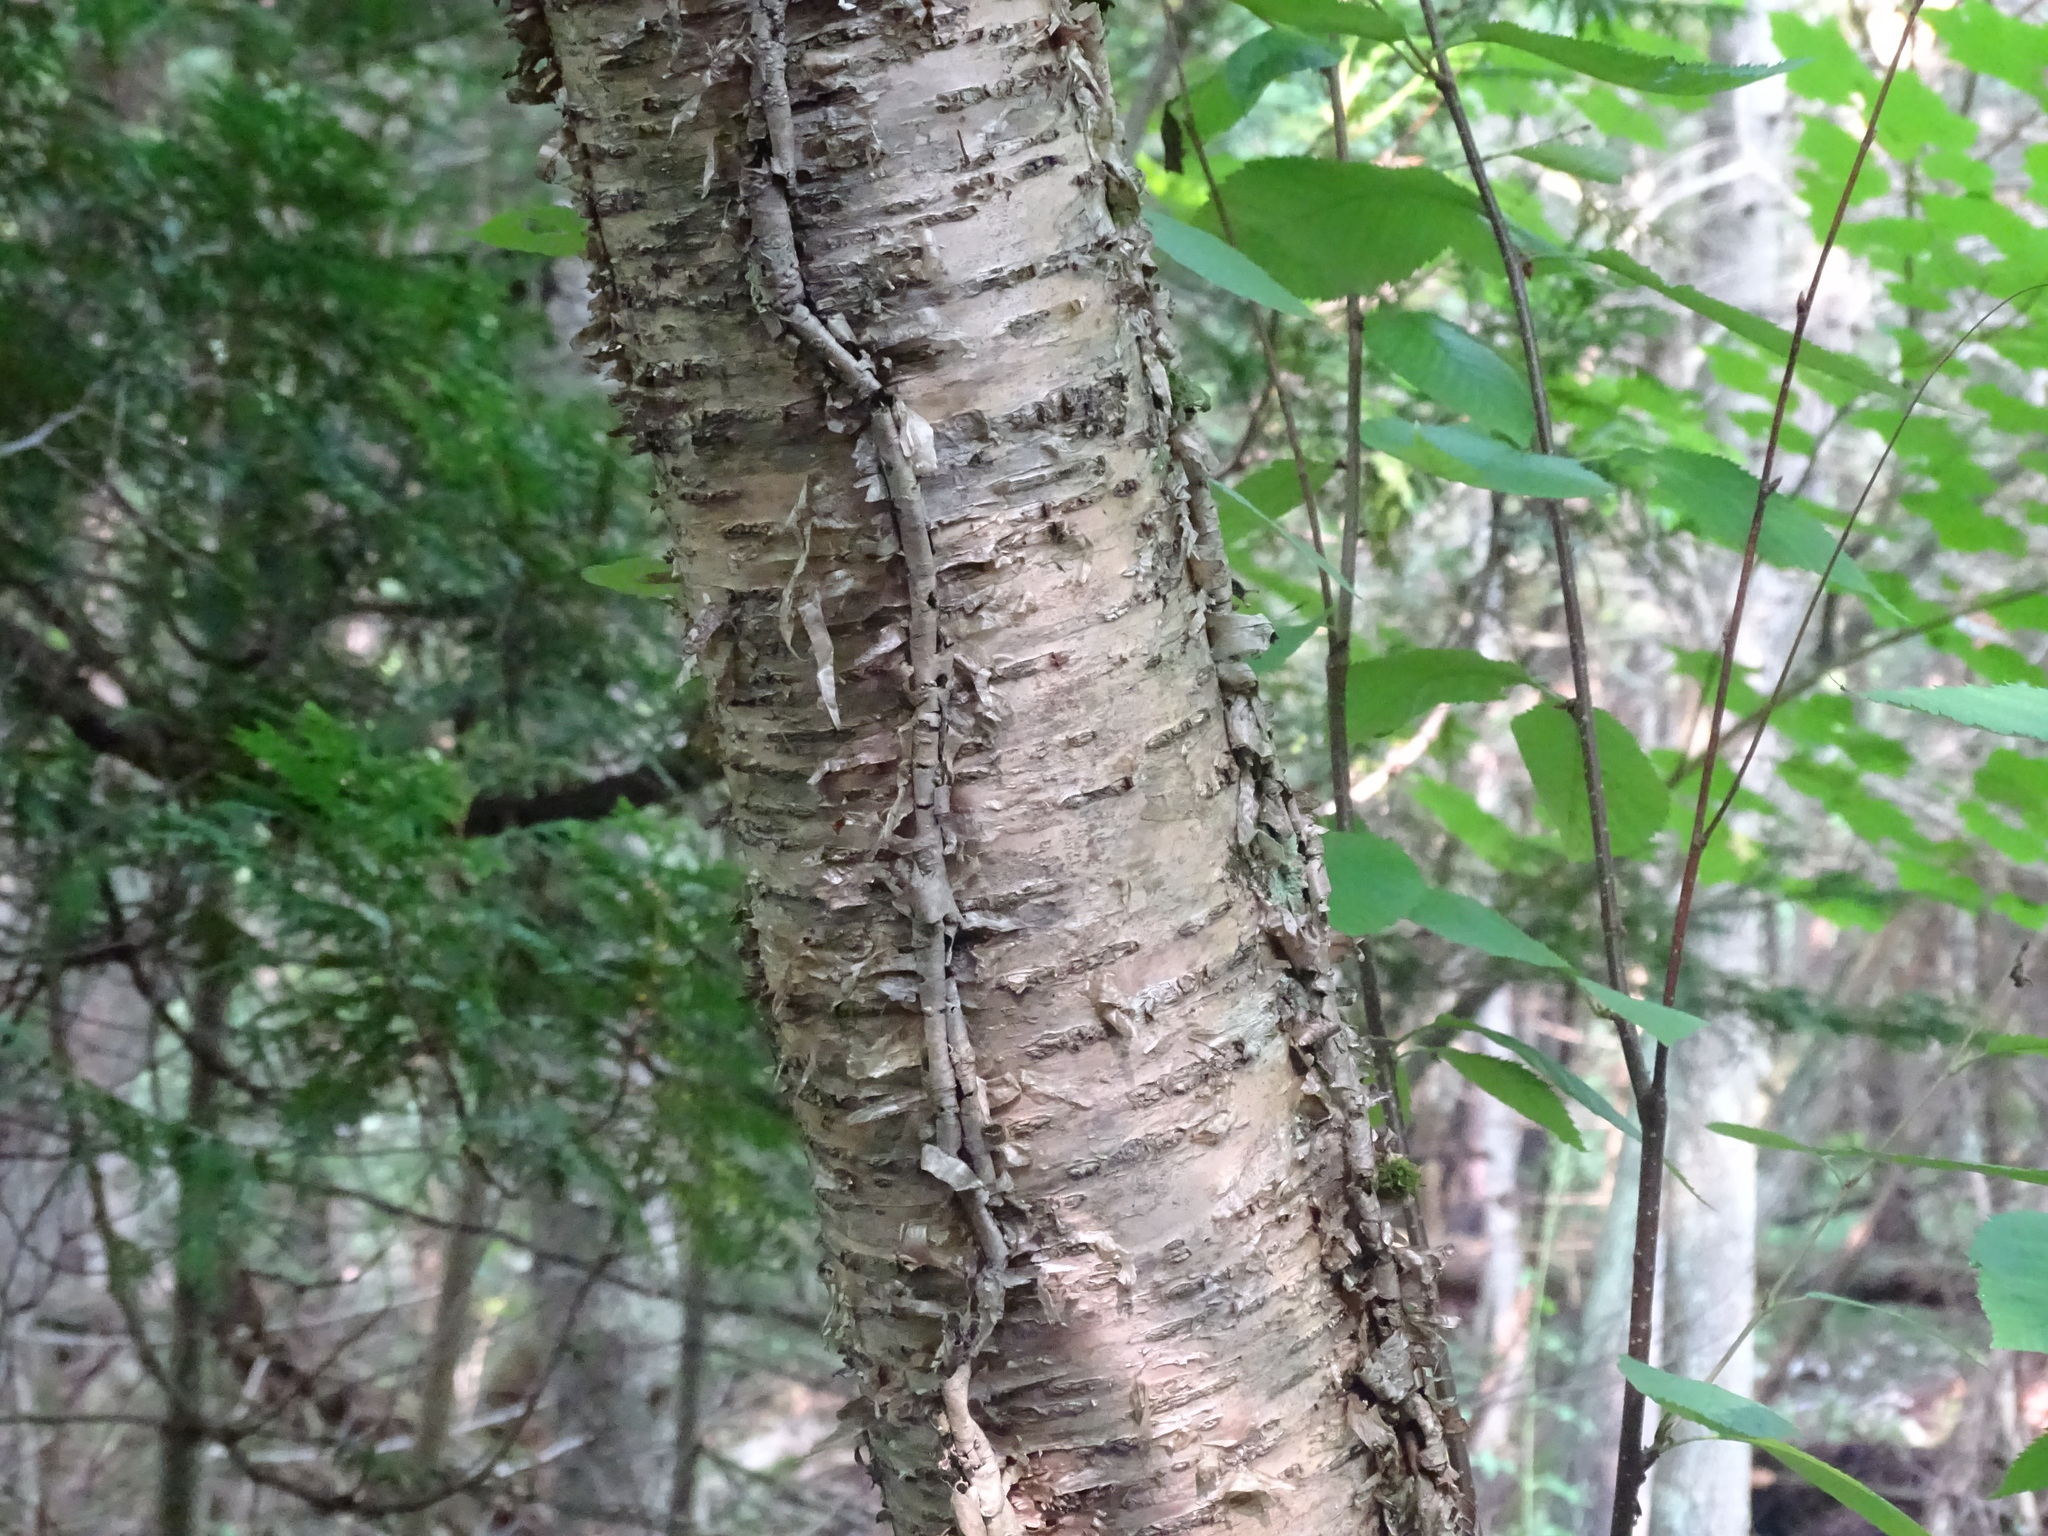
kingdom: Plantae
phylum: Tracheophyta
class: Magnoliopsida
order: Fagales
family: Betulaceae
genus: Betula
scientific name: Betula alleghaniensis
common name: Yellow birch
